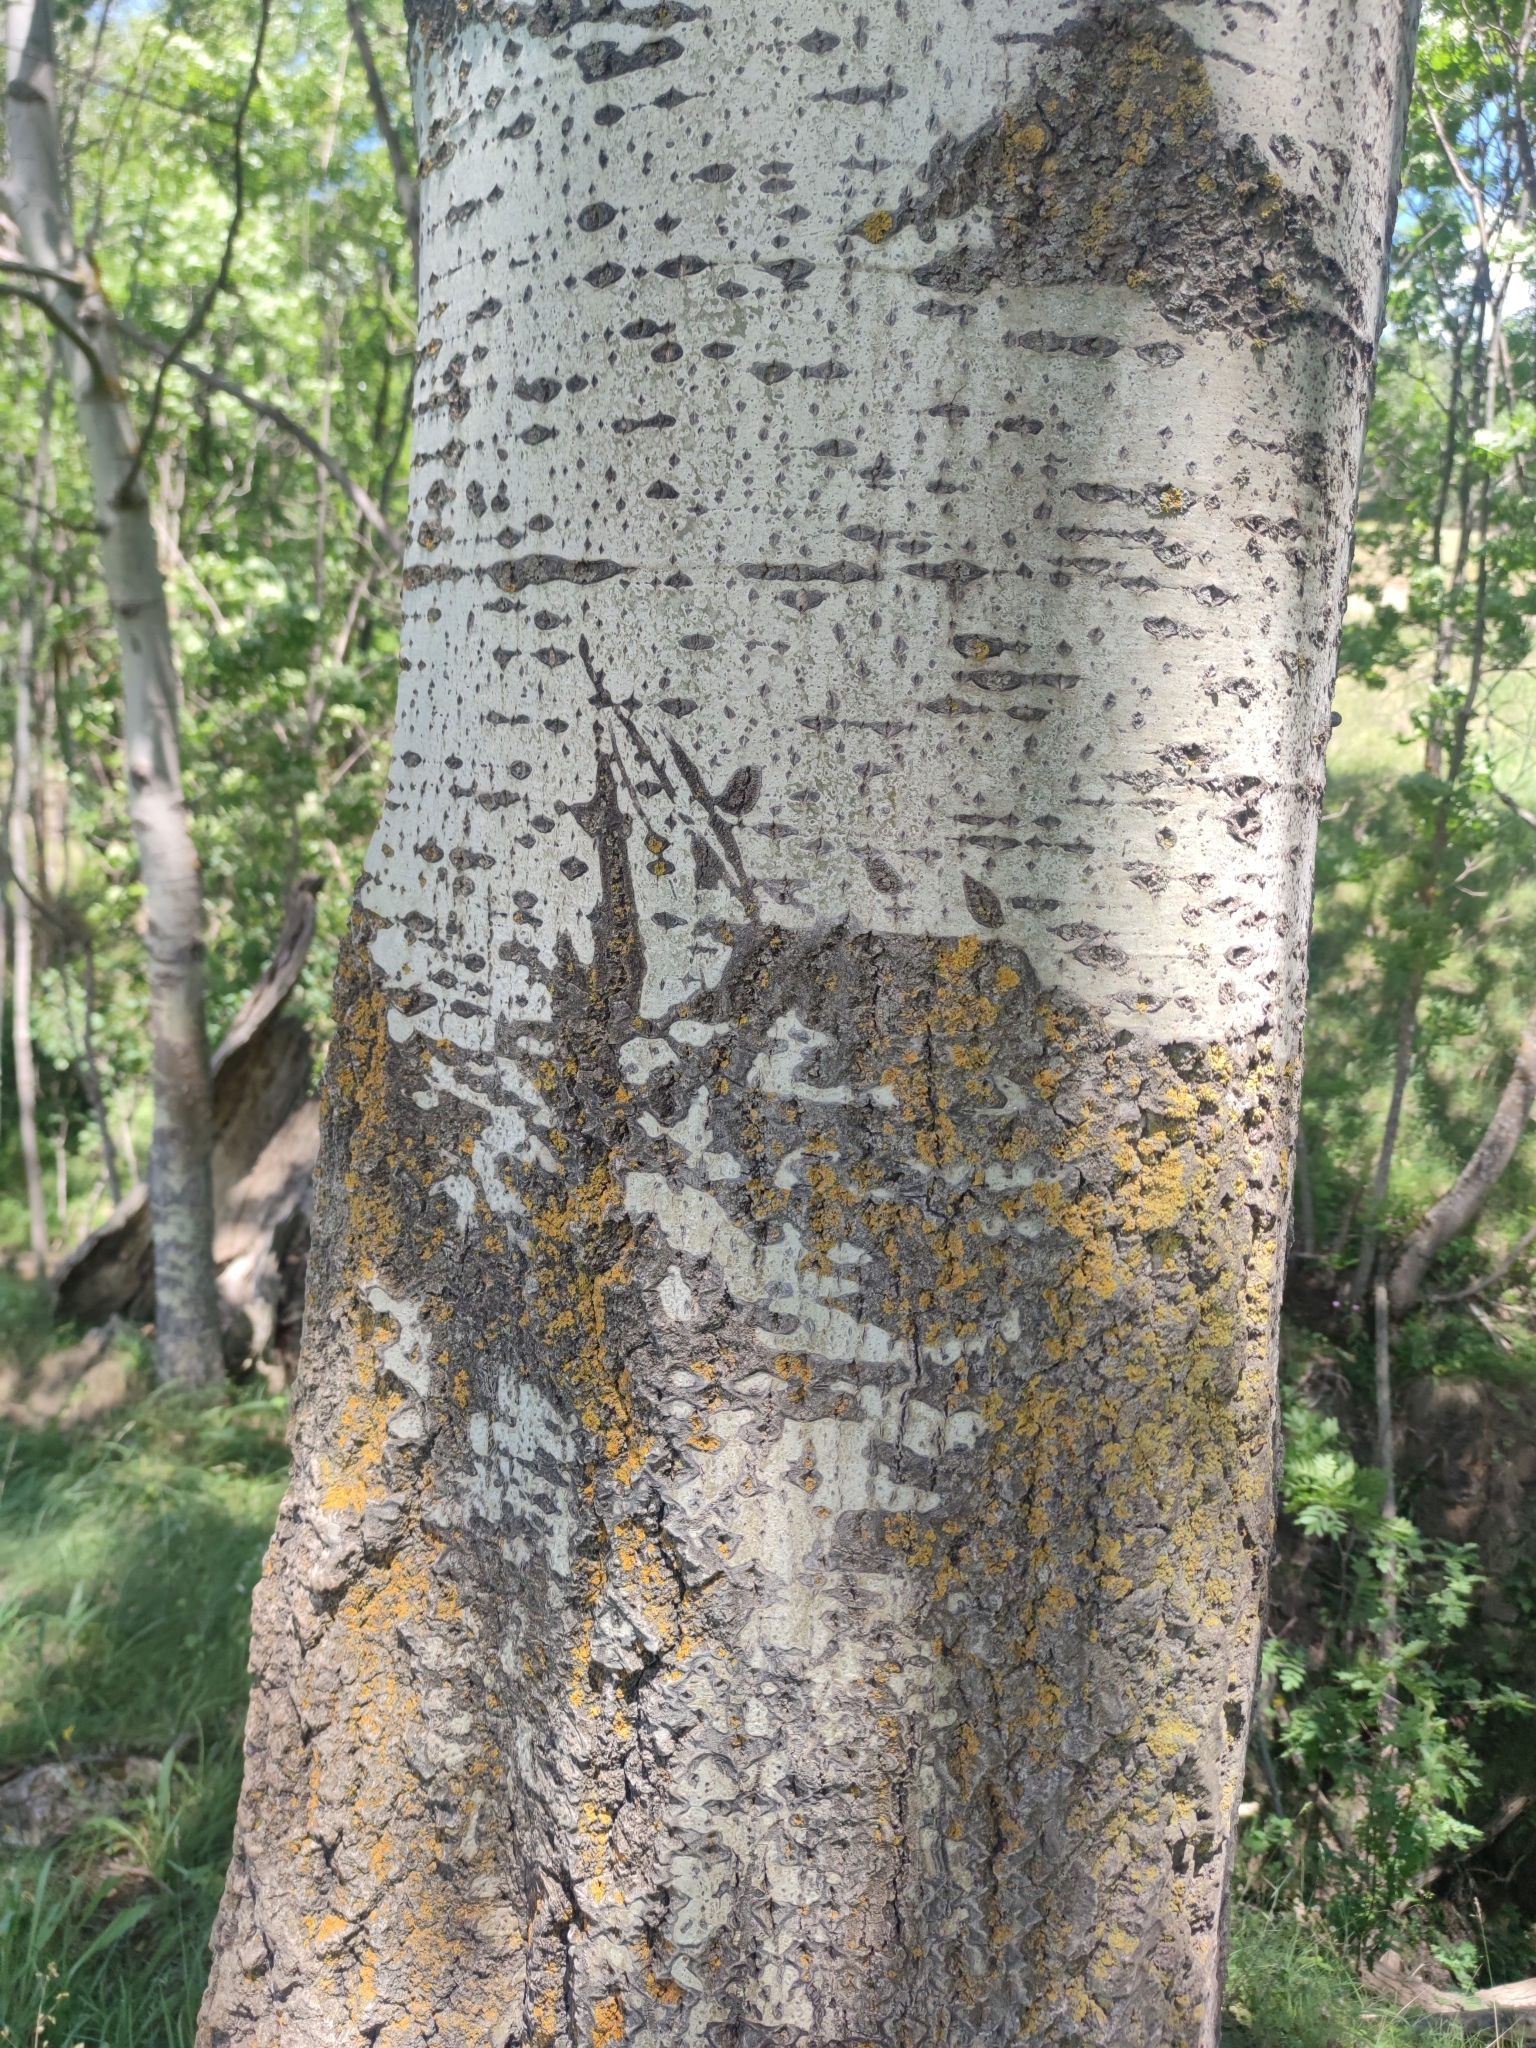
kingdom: Plantae
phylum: Tracheophyta
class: Magnoliopsida
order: Malpighiales
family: Salicaceae
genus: Populus
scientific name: Populus tremula
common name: European aspen
